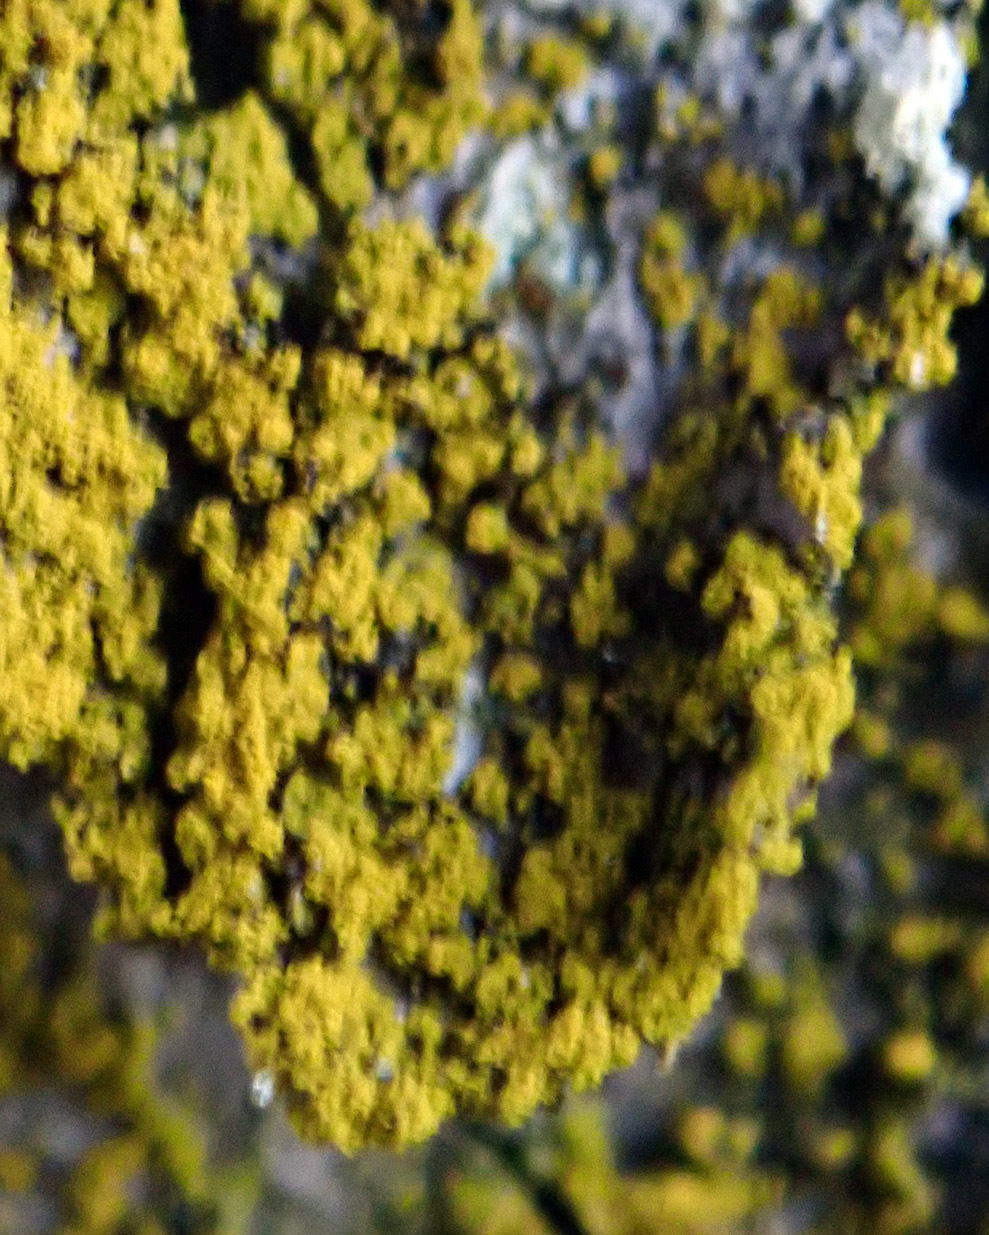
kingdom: Fungi
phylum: Ascomycota
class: Arthoniomycetes
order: Arthoniales
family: Chrysotrichaceae
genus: Chrysothrix
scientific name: Chrysothrix granulosa
